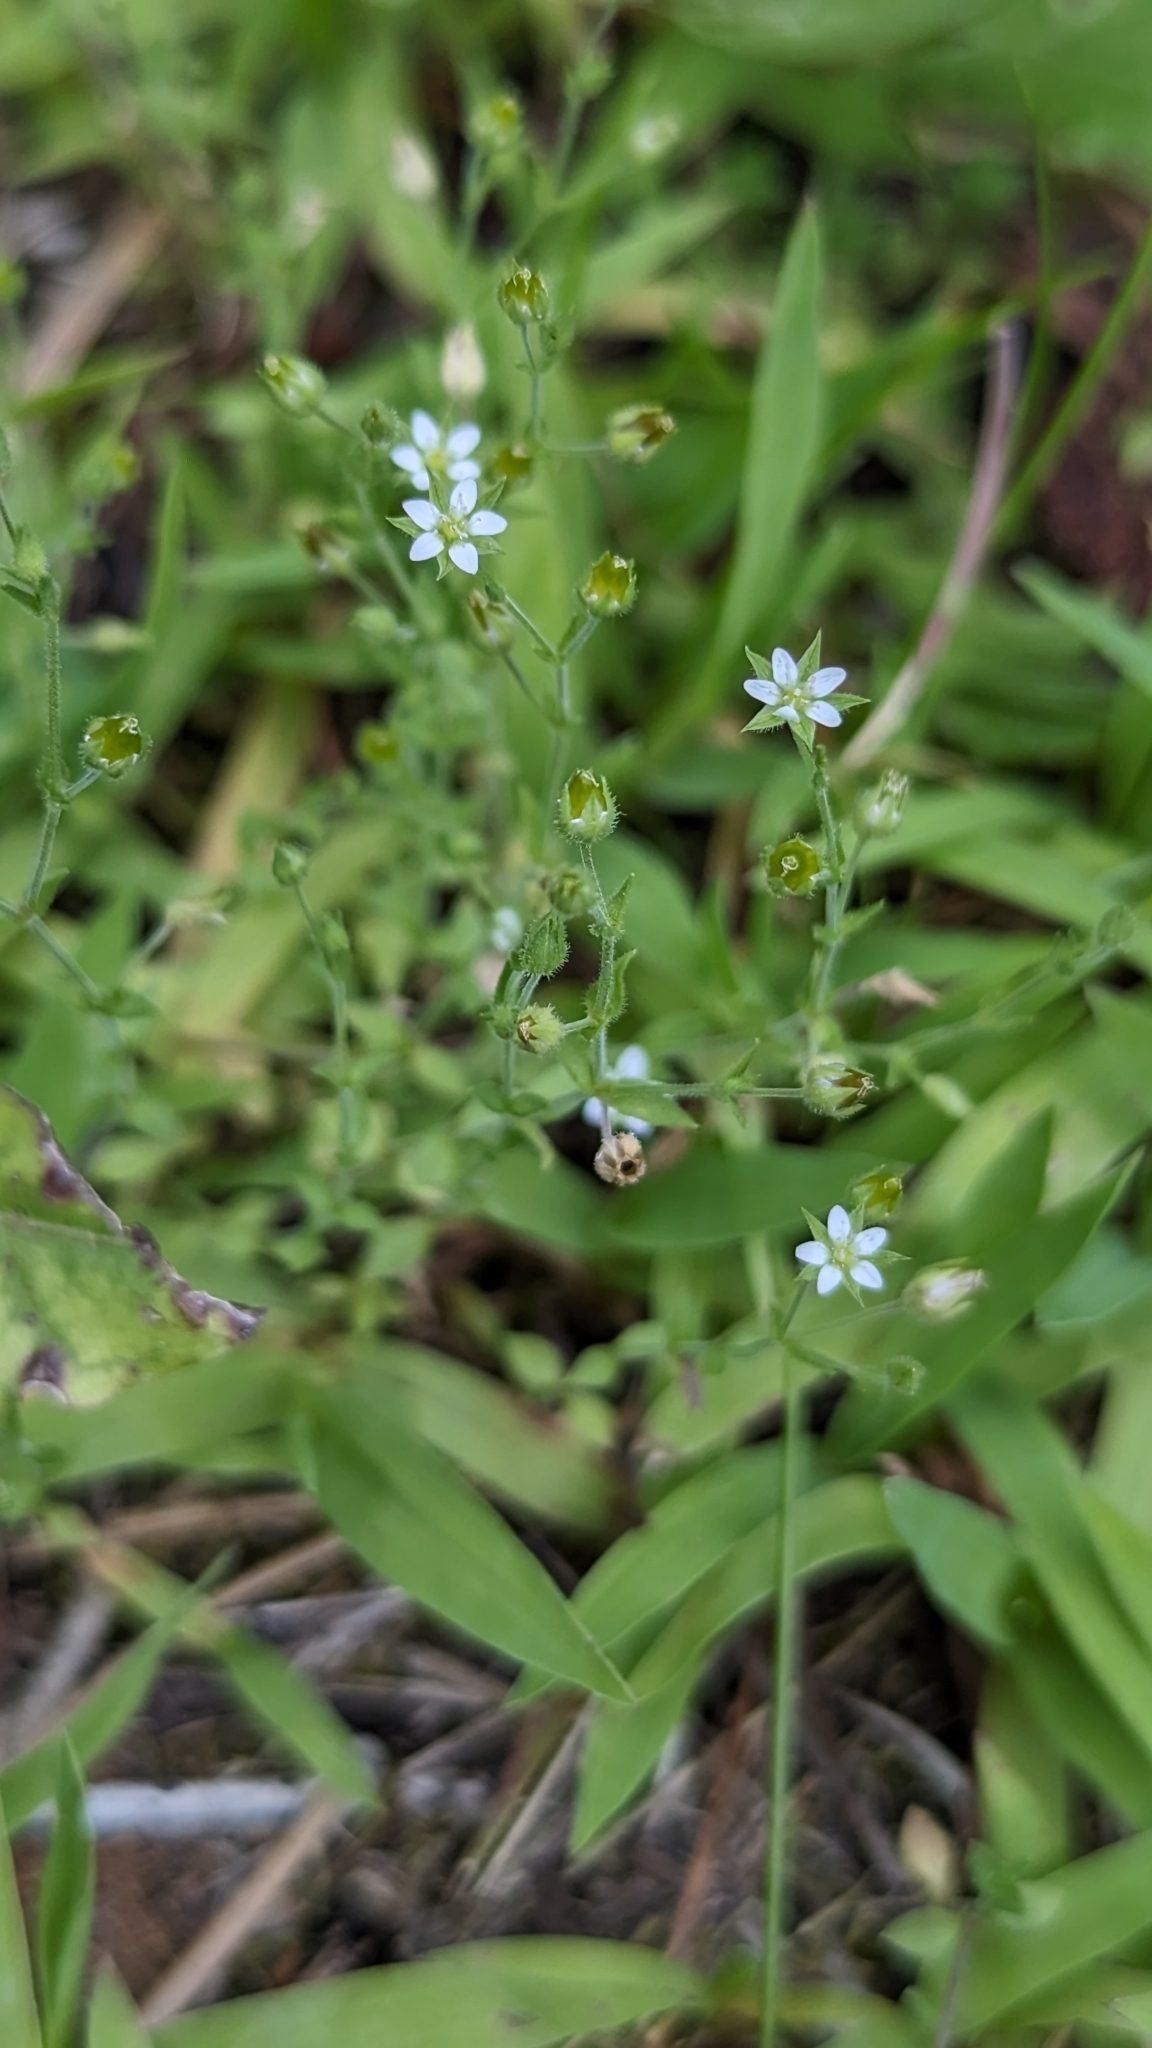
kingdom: Plantae
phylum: Tracheophyta
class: Magnoliopsida
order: Caryophyllales
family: Caryophyllaceae
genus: Arenaria
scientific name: Arenaria serpyllifolia
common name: Thyme-leaved sandwort
